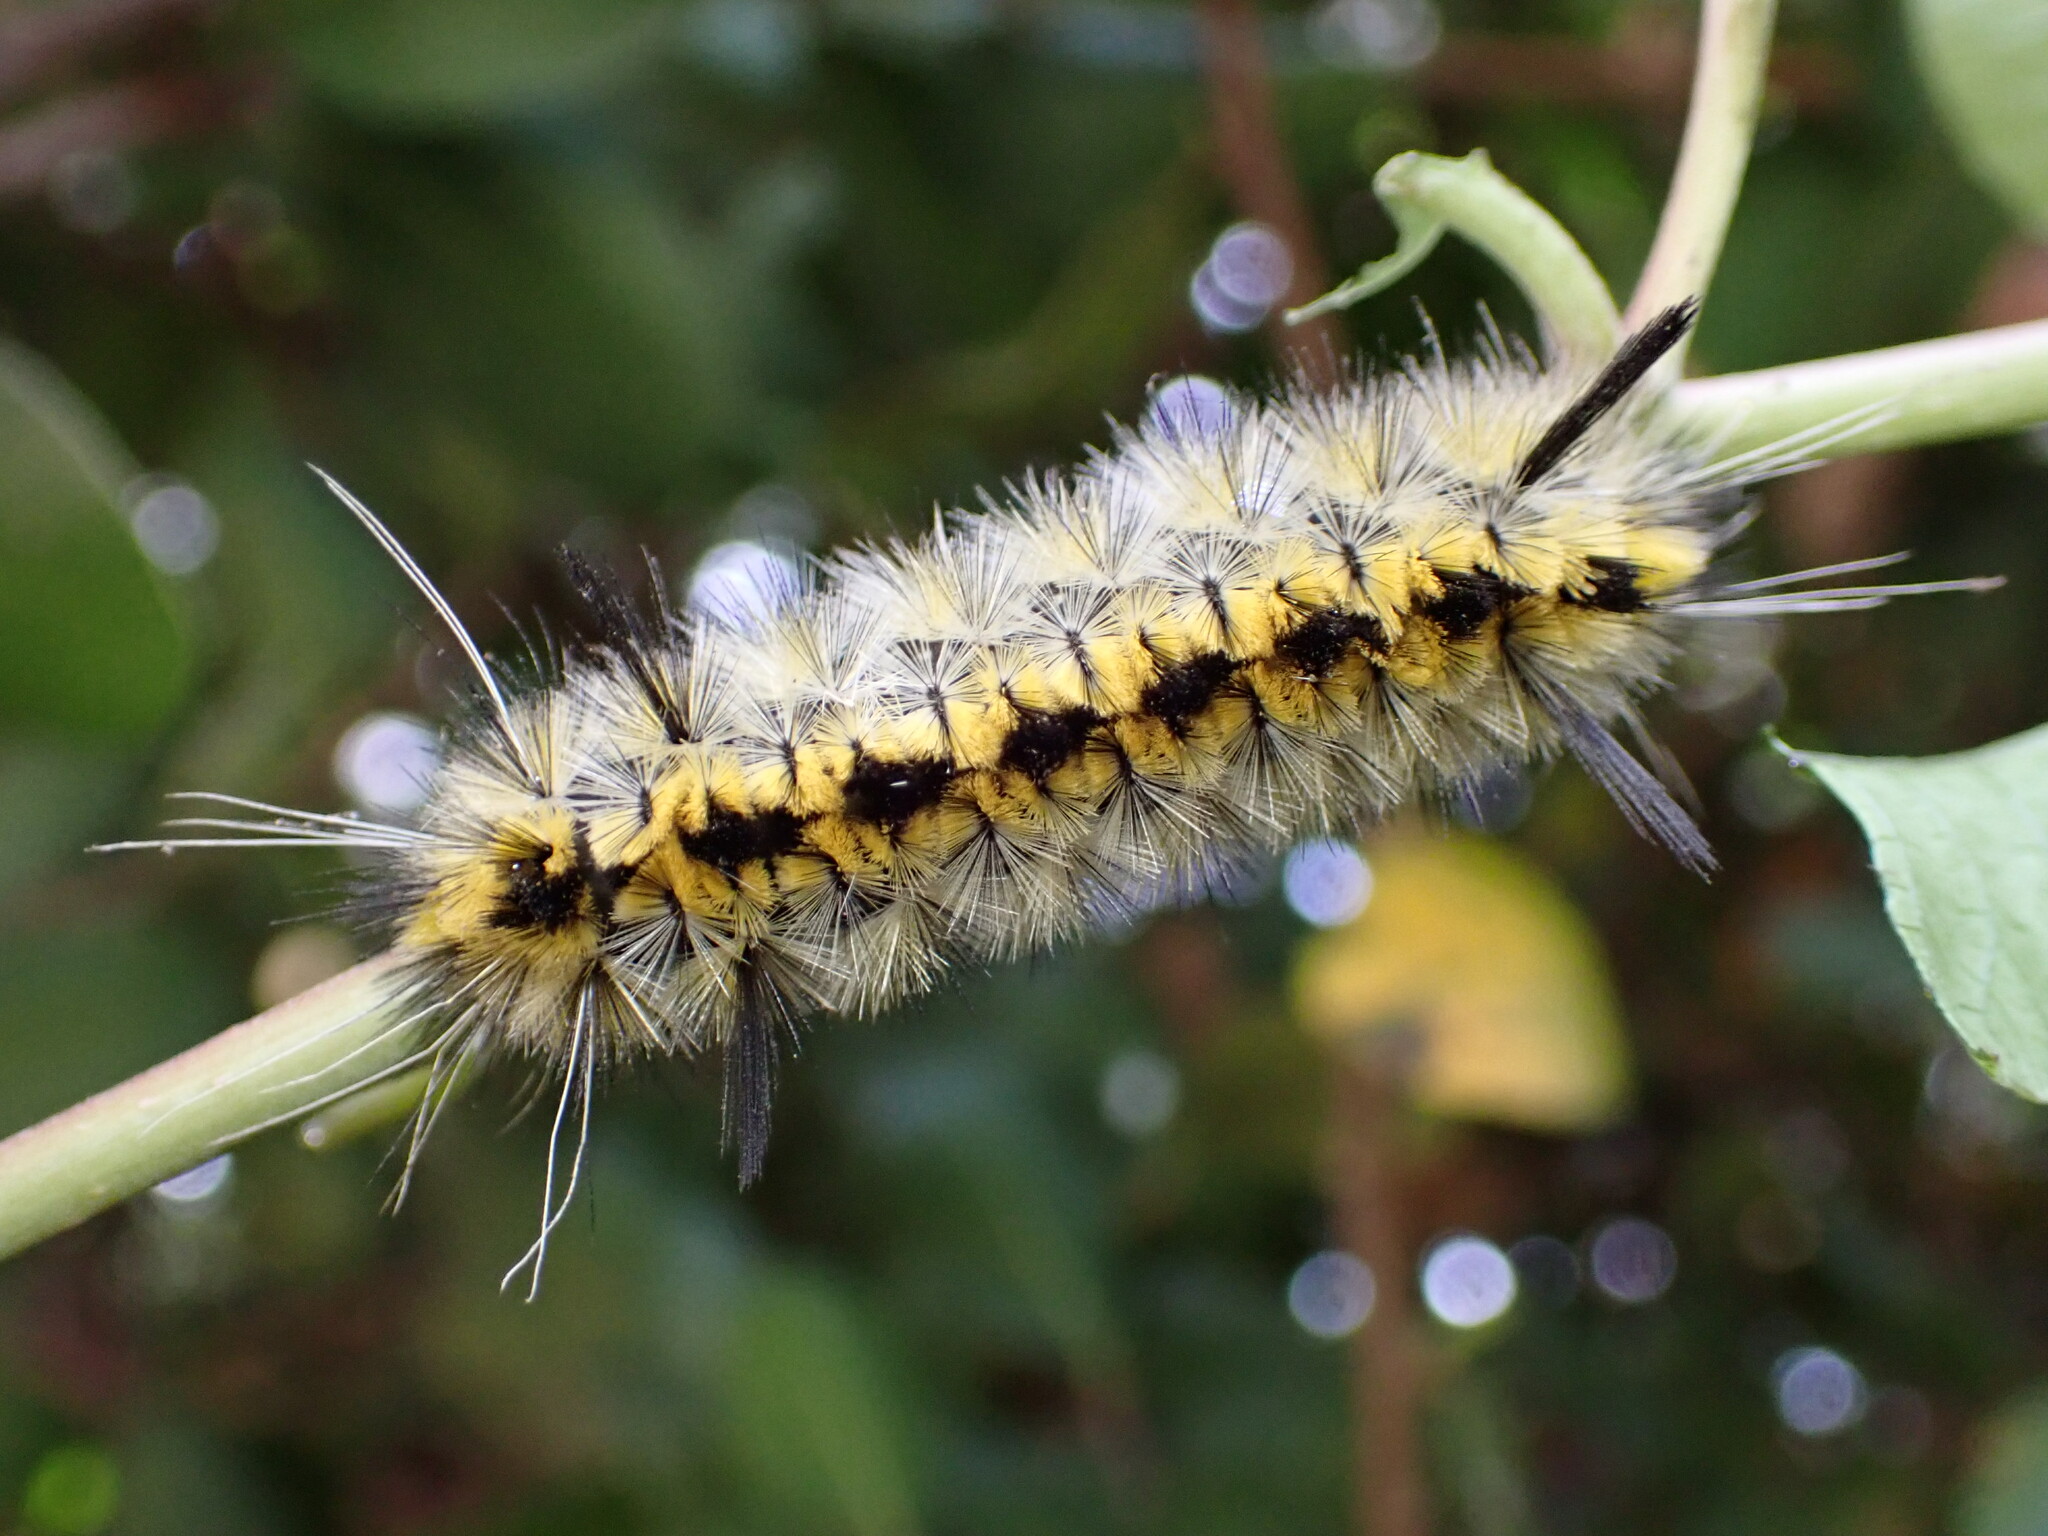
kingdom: Animalia
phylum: Arthropoda
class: Insecta
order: Lepidoptera
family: Erebidae
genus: Lophocampa
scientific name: Lophocampa indistincta
